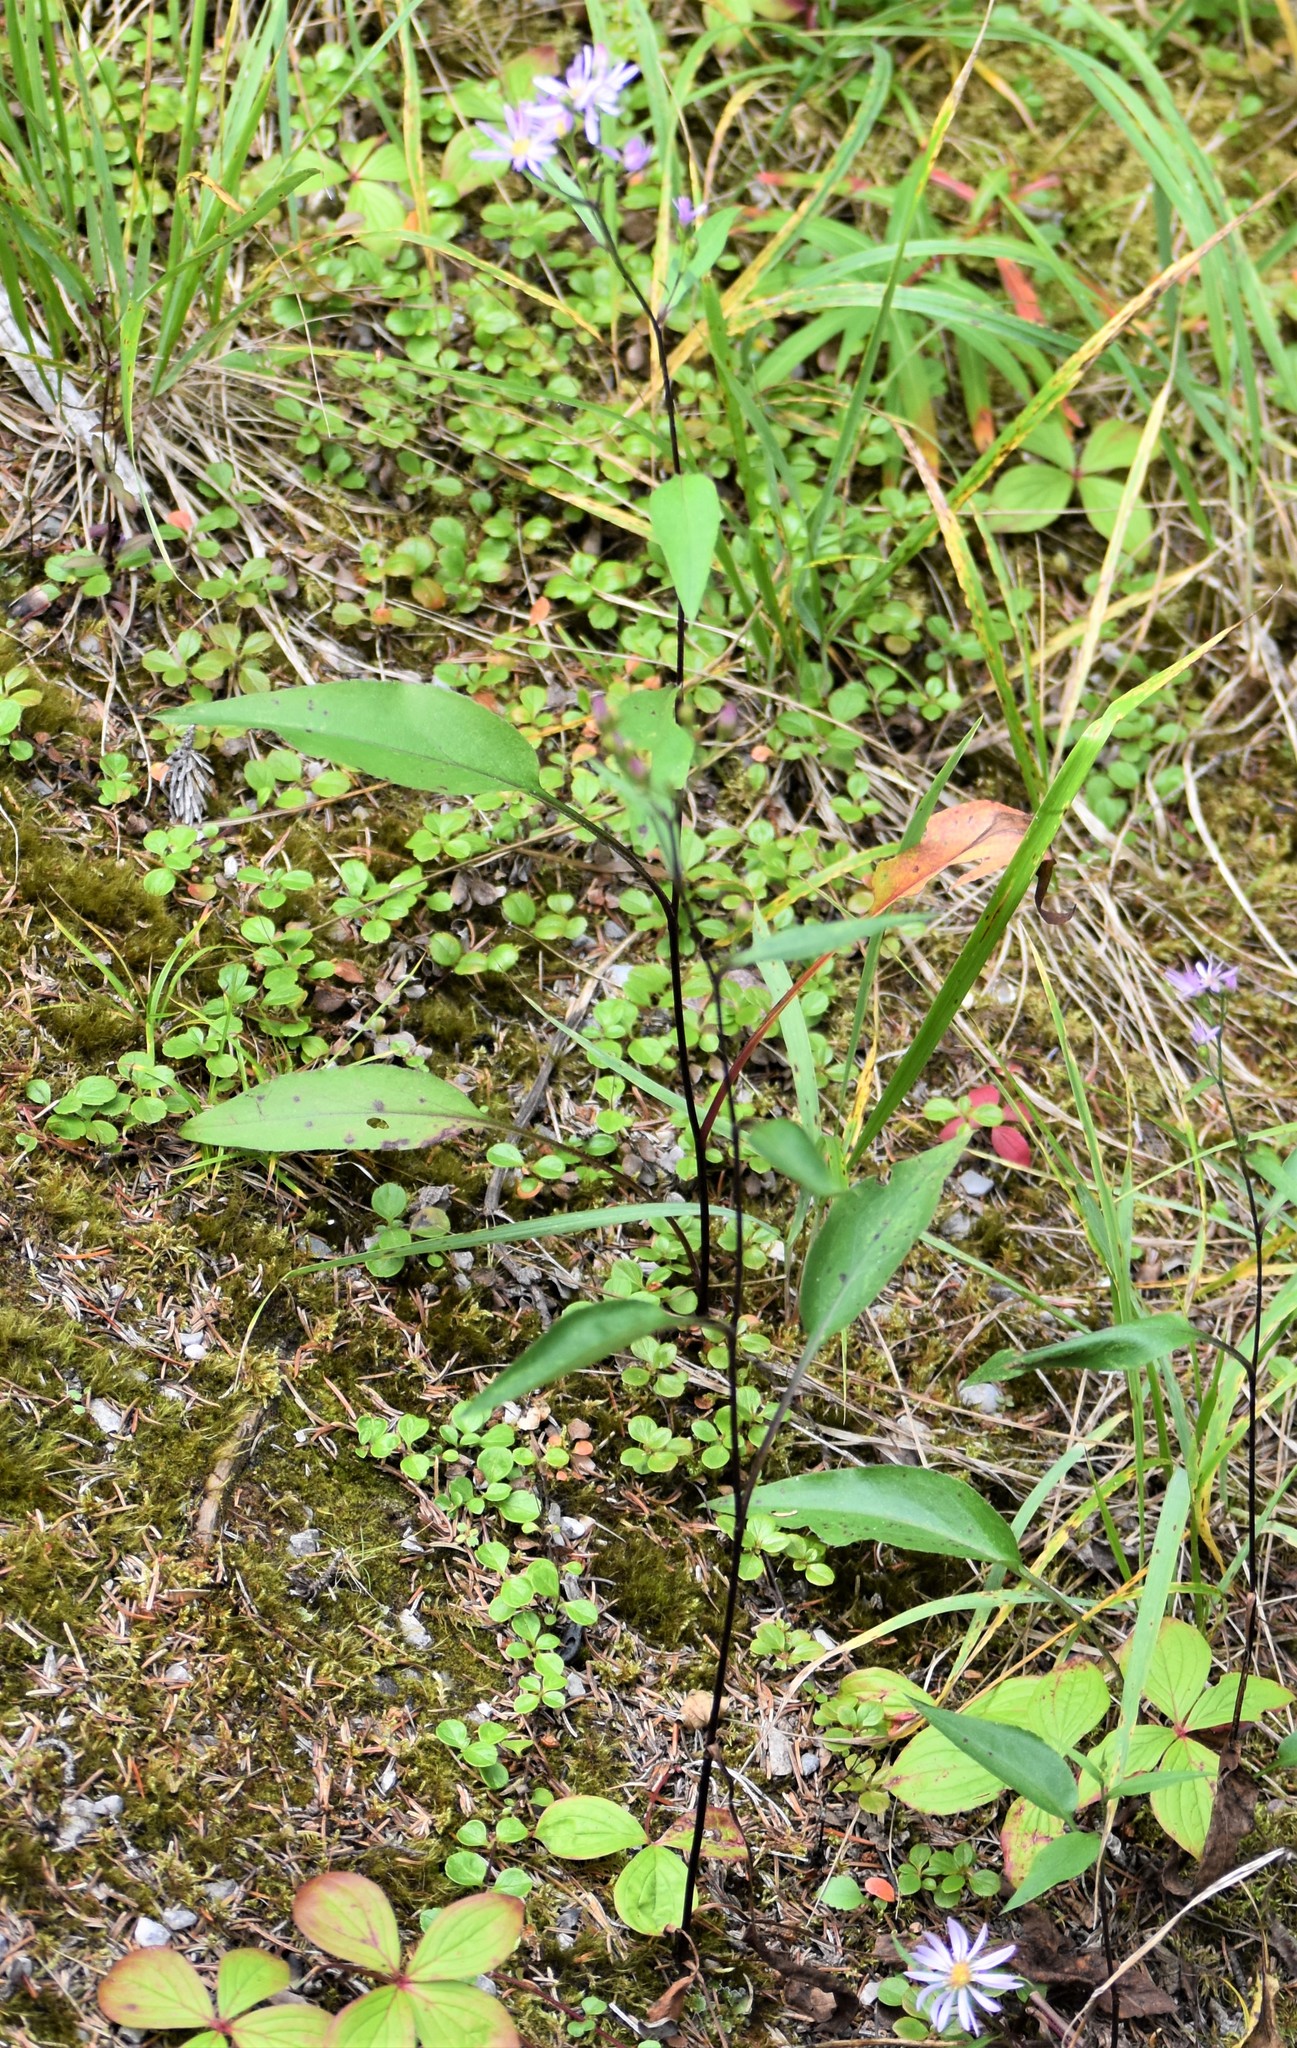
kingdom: Plantae
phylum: Tracheophyta
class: Magnoliopsida
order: Asterales
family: Asteraceae
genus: Symphyotrichum
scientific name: Symphyotrichum ciliolatum
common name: Fringed blue aster
